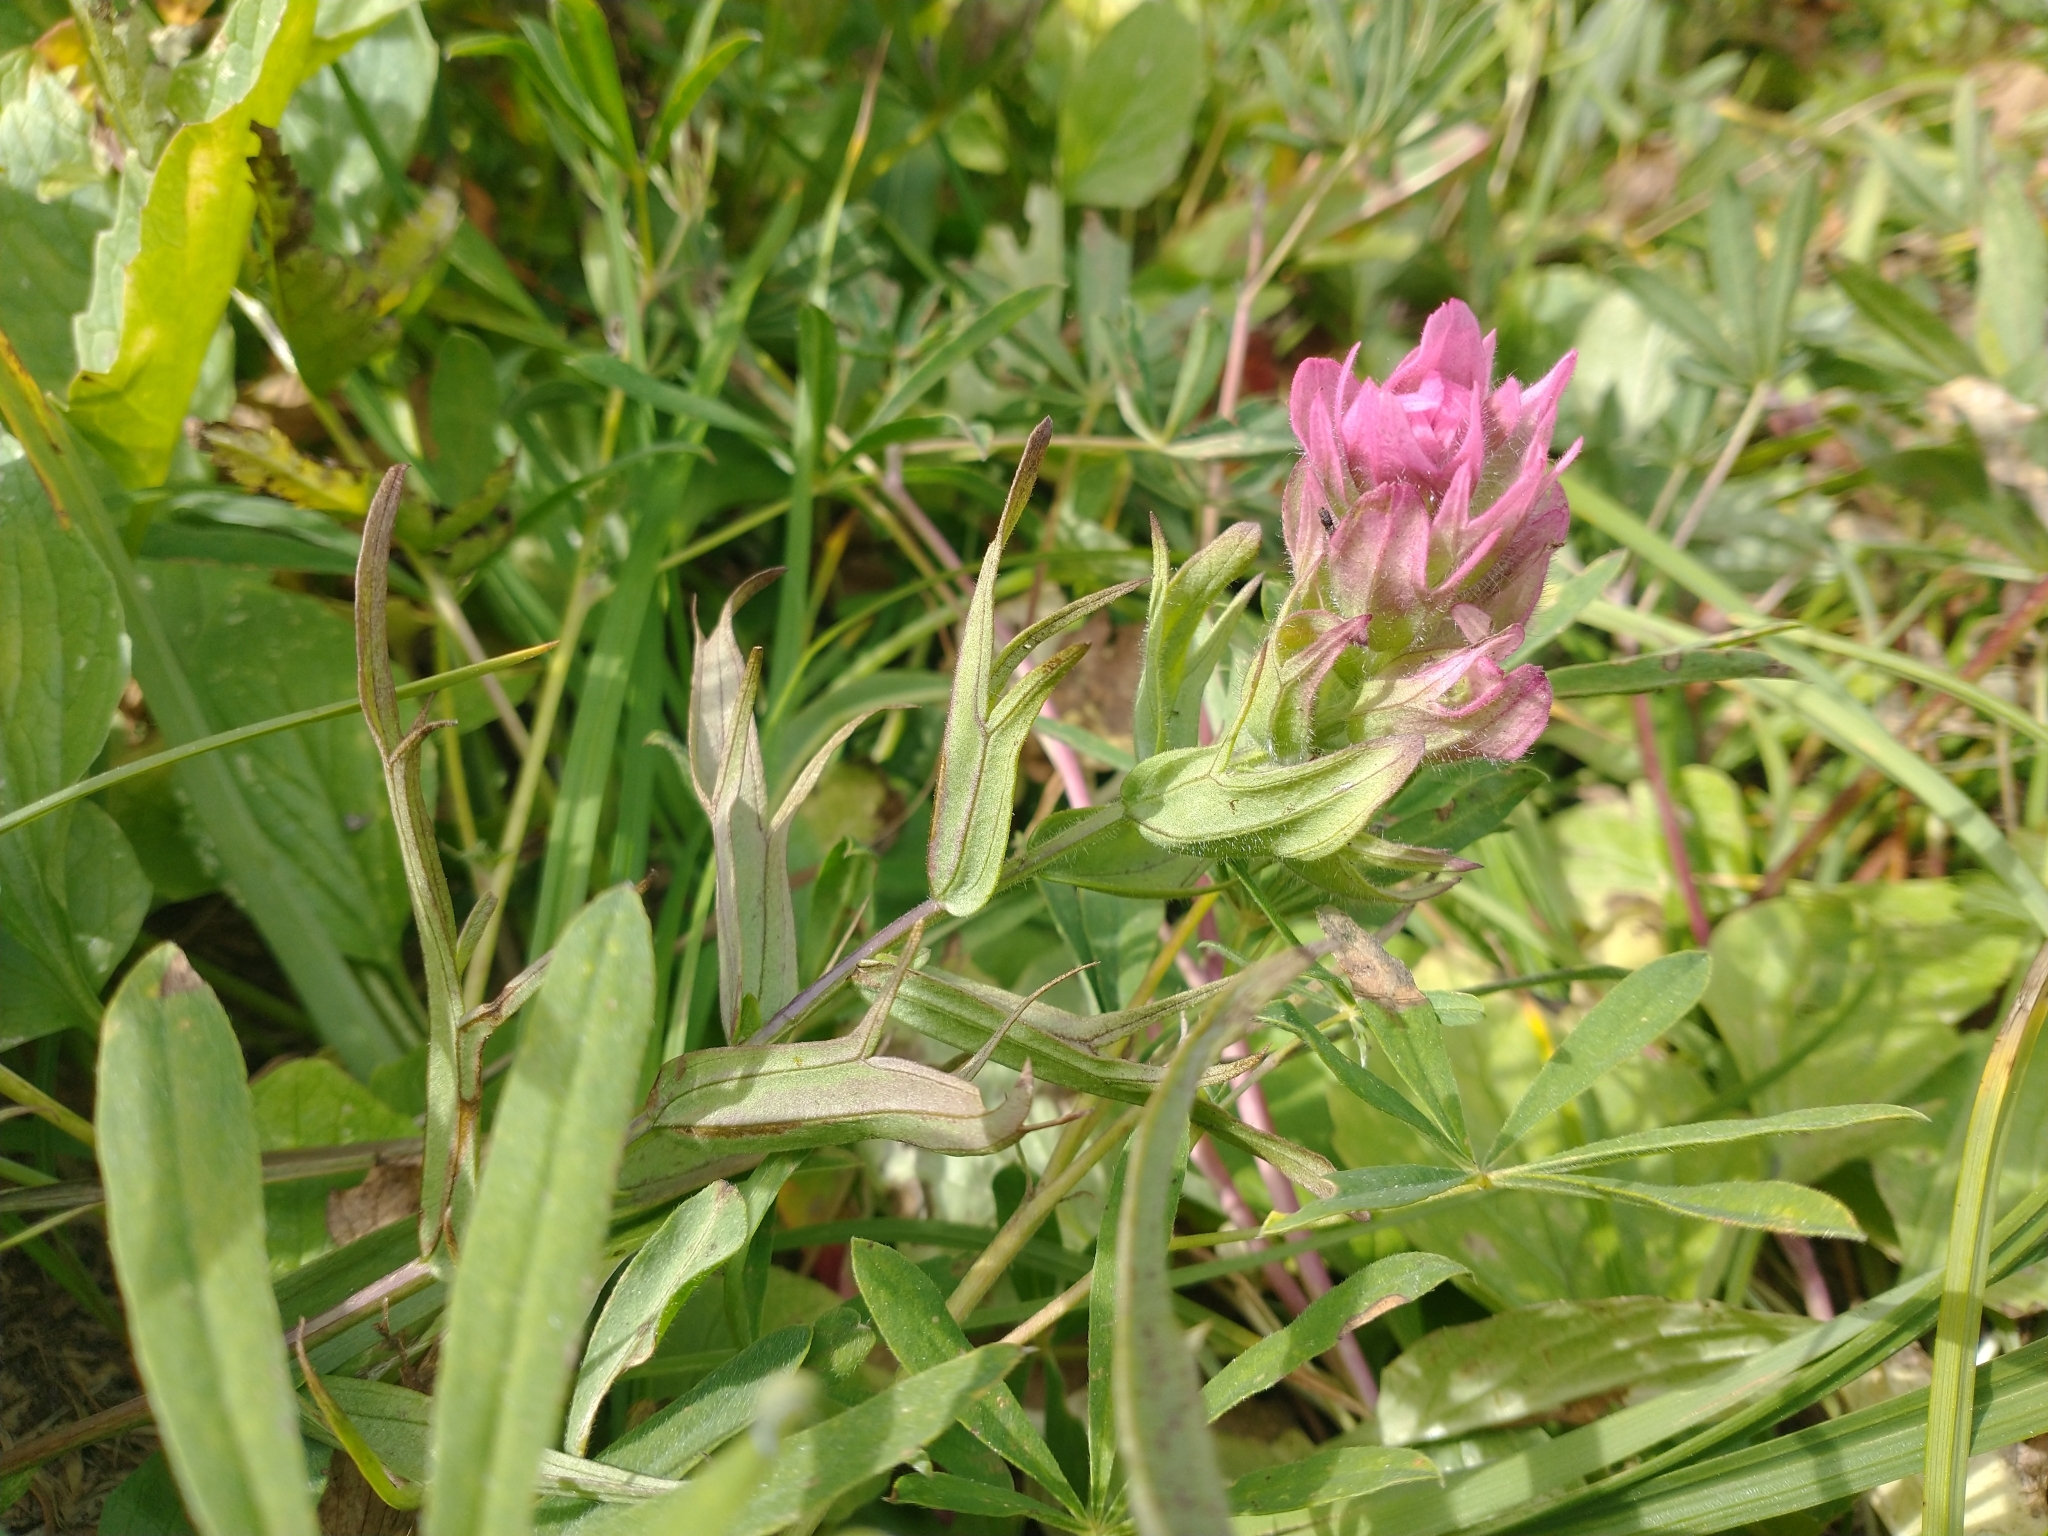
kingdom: Plantae
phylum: Tracheophyta
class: Magnoliopsida
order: Lamiales
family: Orobanchaceae
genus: Castilleja
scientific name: Castilleja parviflora
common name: Mountain paintbrush
